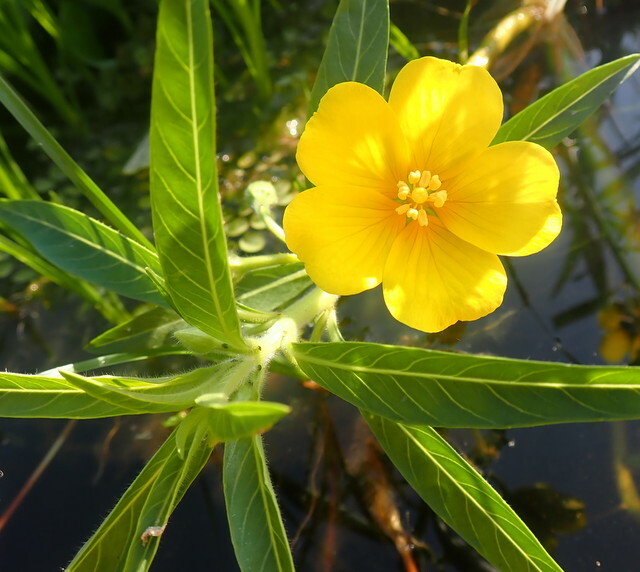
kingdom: Plantae
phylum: Tracheophyta
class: Magnoliopsida
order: Myrtales
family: Onagraceae
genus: Ludwigia
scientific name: Ludwigia hexapetala
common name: Water-primrose
